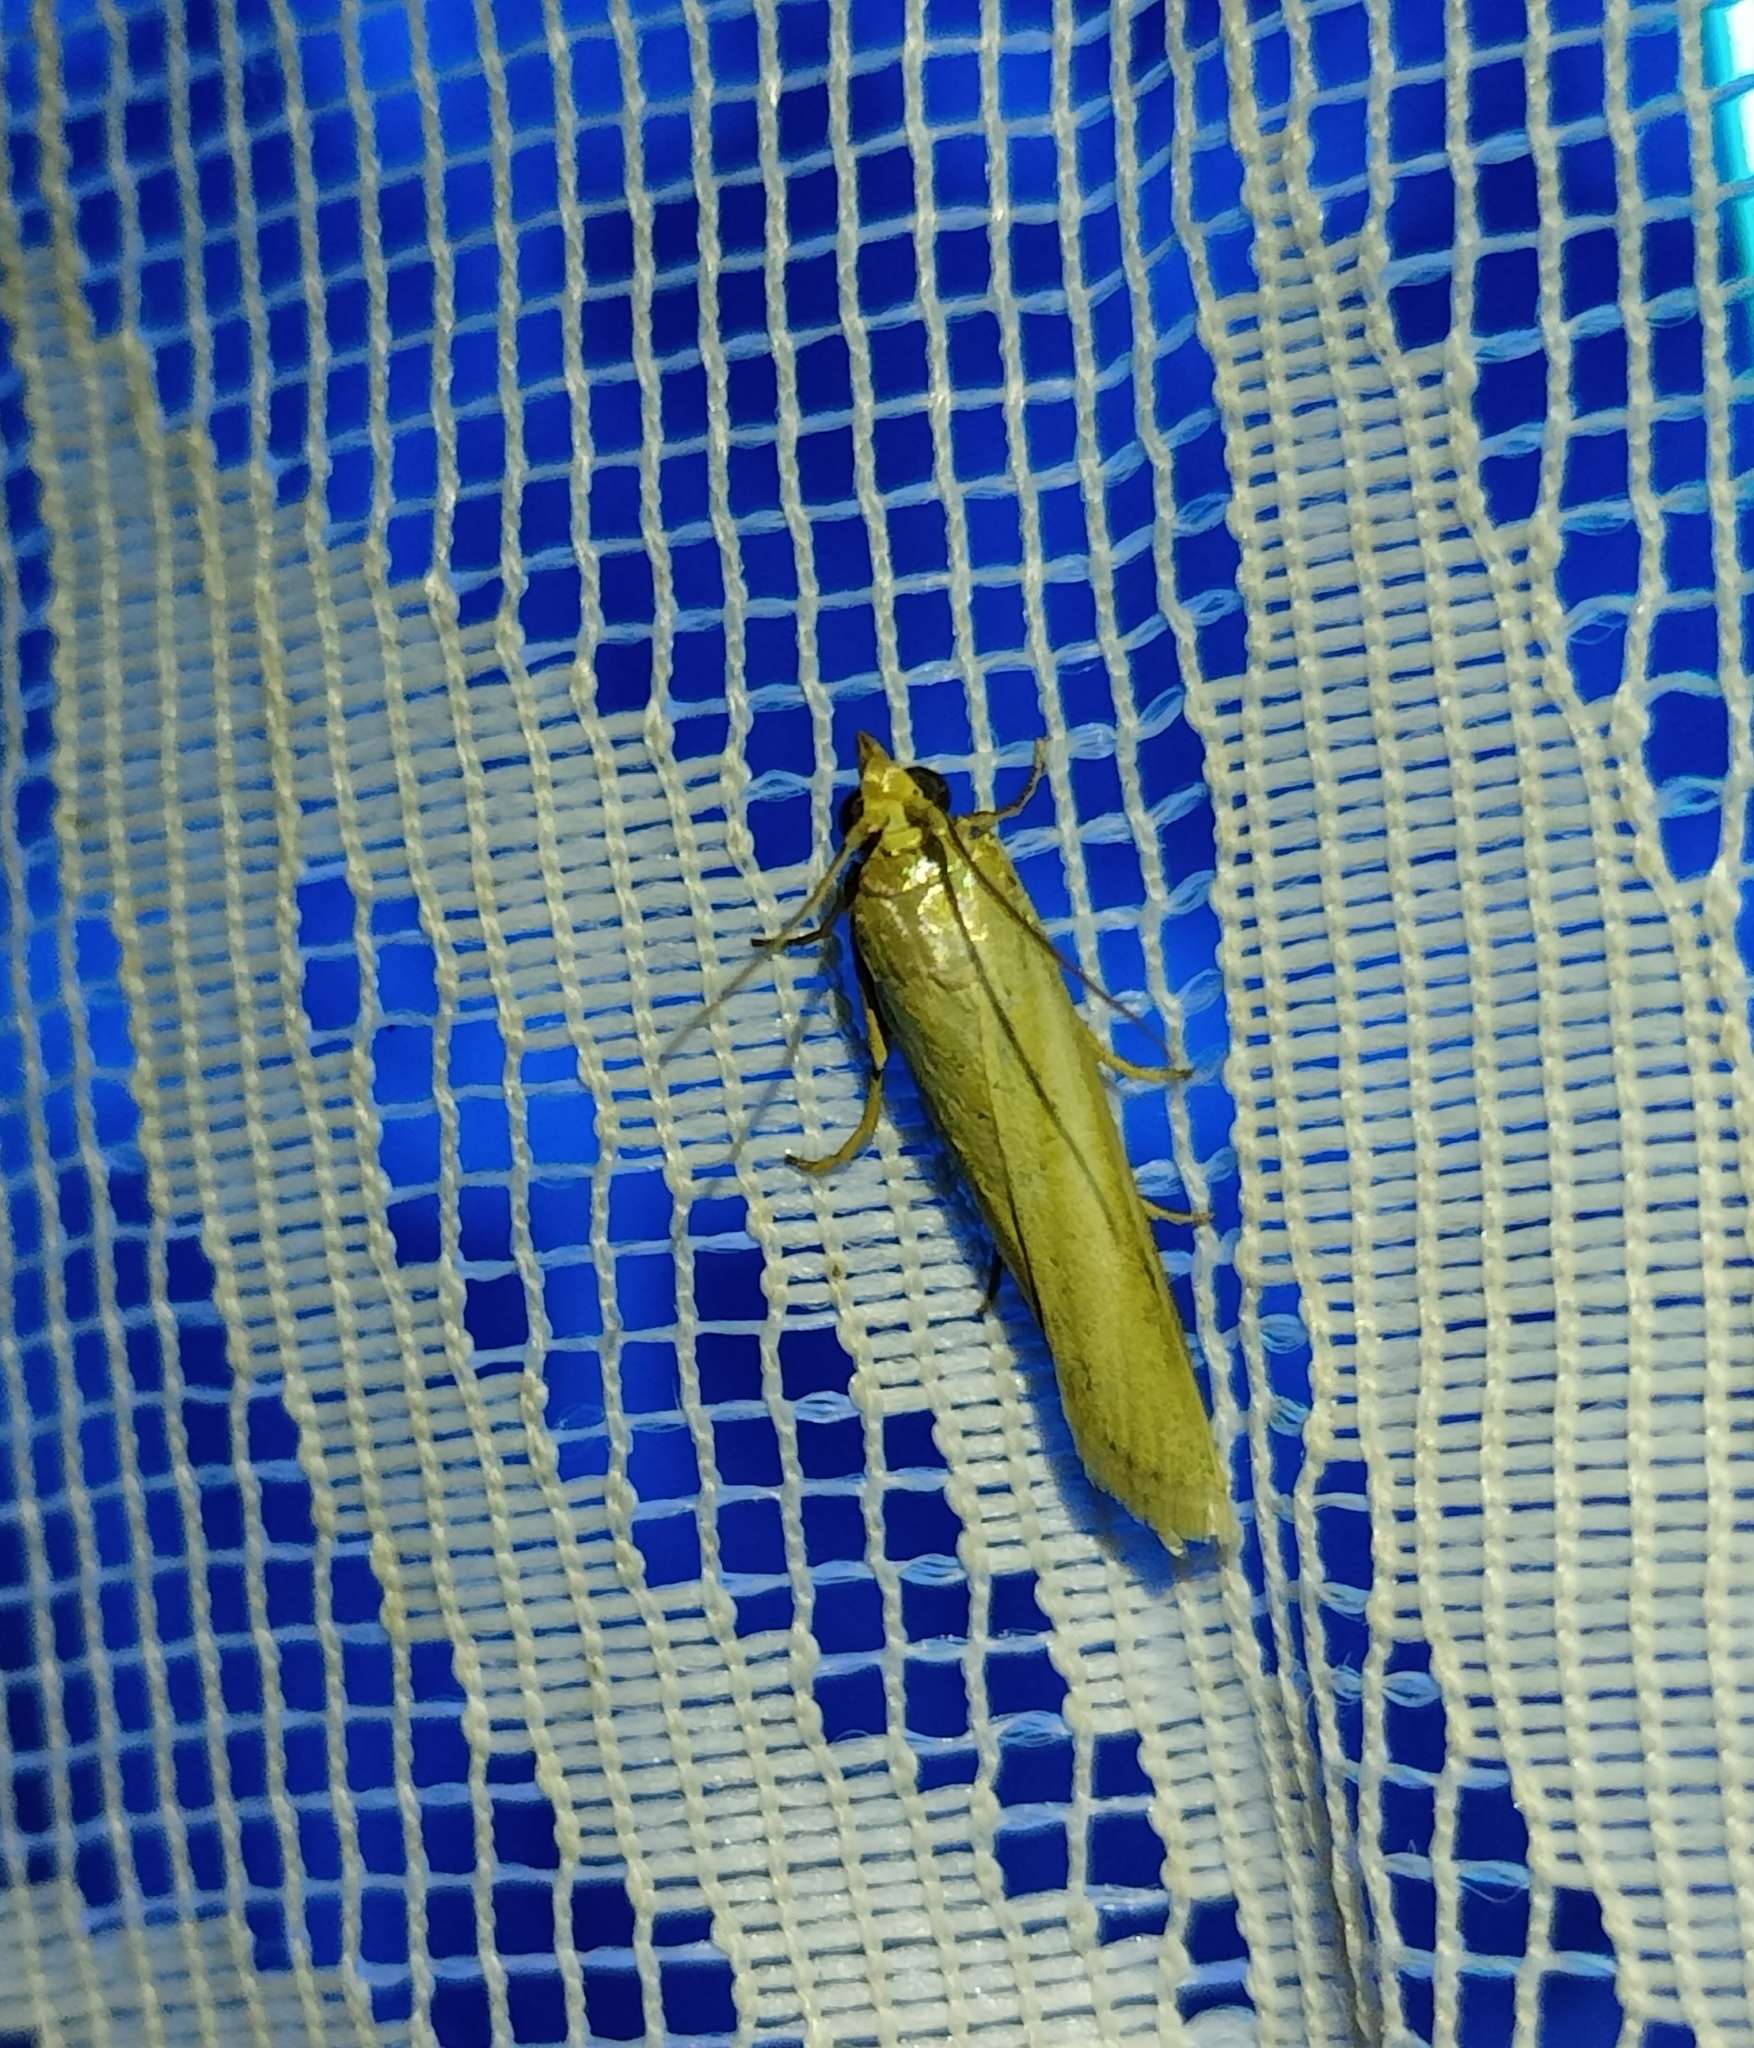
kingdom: Animalia
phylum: Arthropoda
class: Insecta
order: Lepidoptera
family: Pyralidae
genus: Selagia
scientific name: Selagia argyrella
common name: Silvery knot-horn
